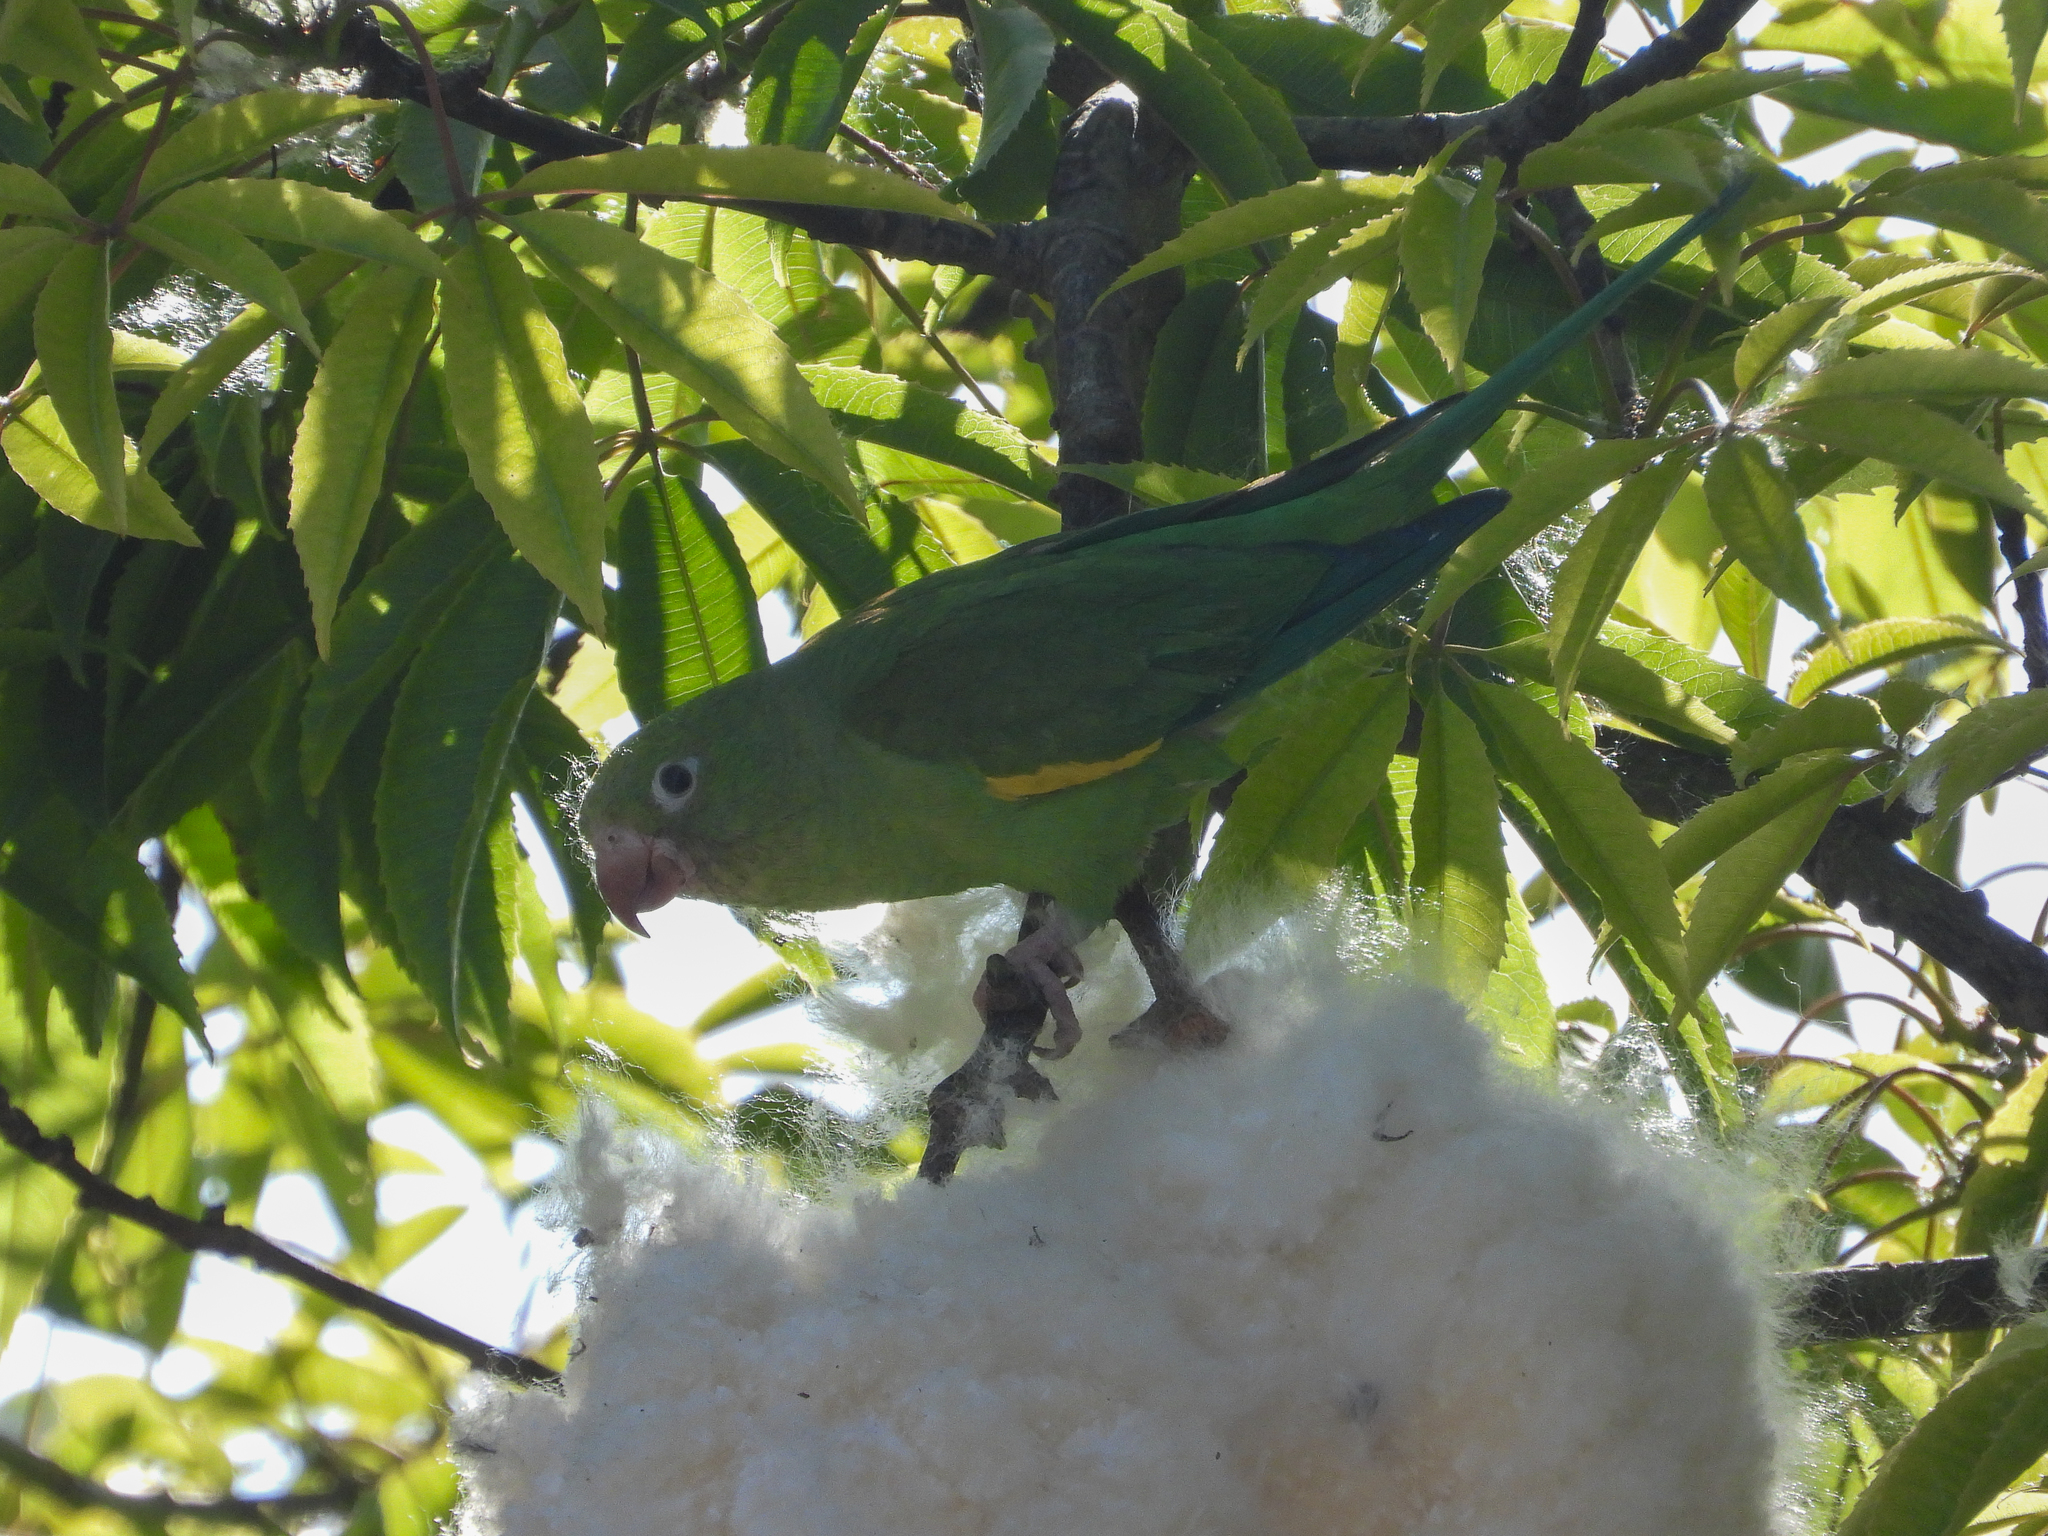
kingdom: Animalia
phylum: Chordata
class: Aves
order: Psittaciformes
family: Psittacidae
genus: Brotogeris
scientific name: Brotogeris chiriri
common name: Yellow-chevroned parakeet
